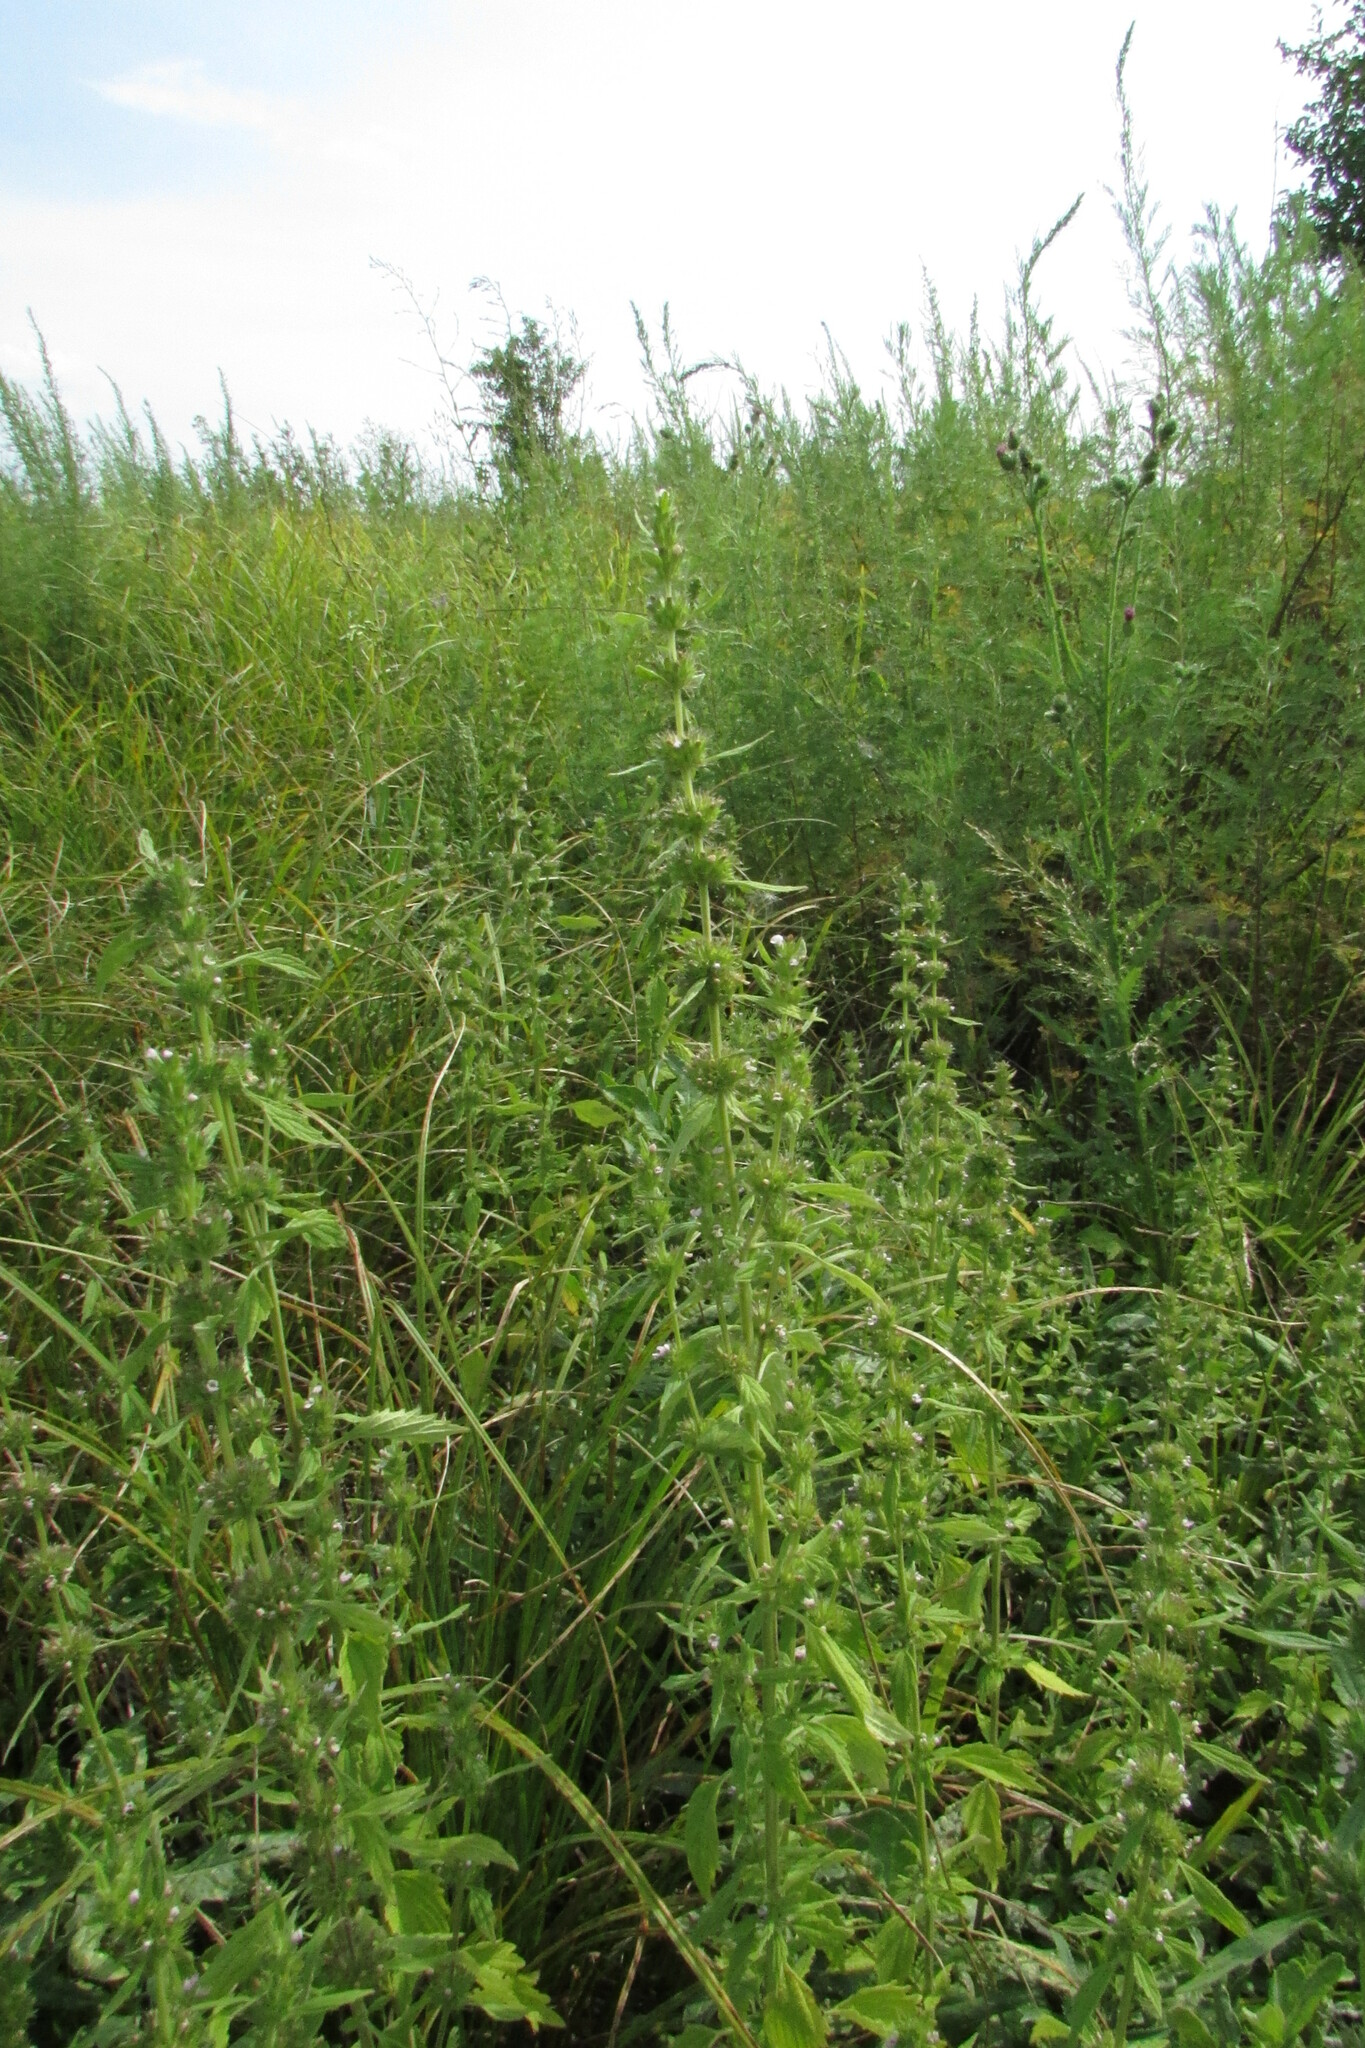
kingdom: Plantae
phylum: Tracheophyta
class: Magnoliopsida
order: Lamiales
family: Lamiaceae
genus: Chaiturus
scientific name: Chaiturus marrubiastrum
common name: Lion's tail
